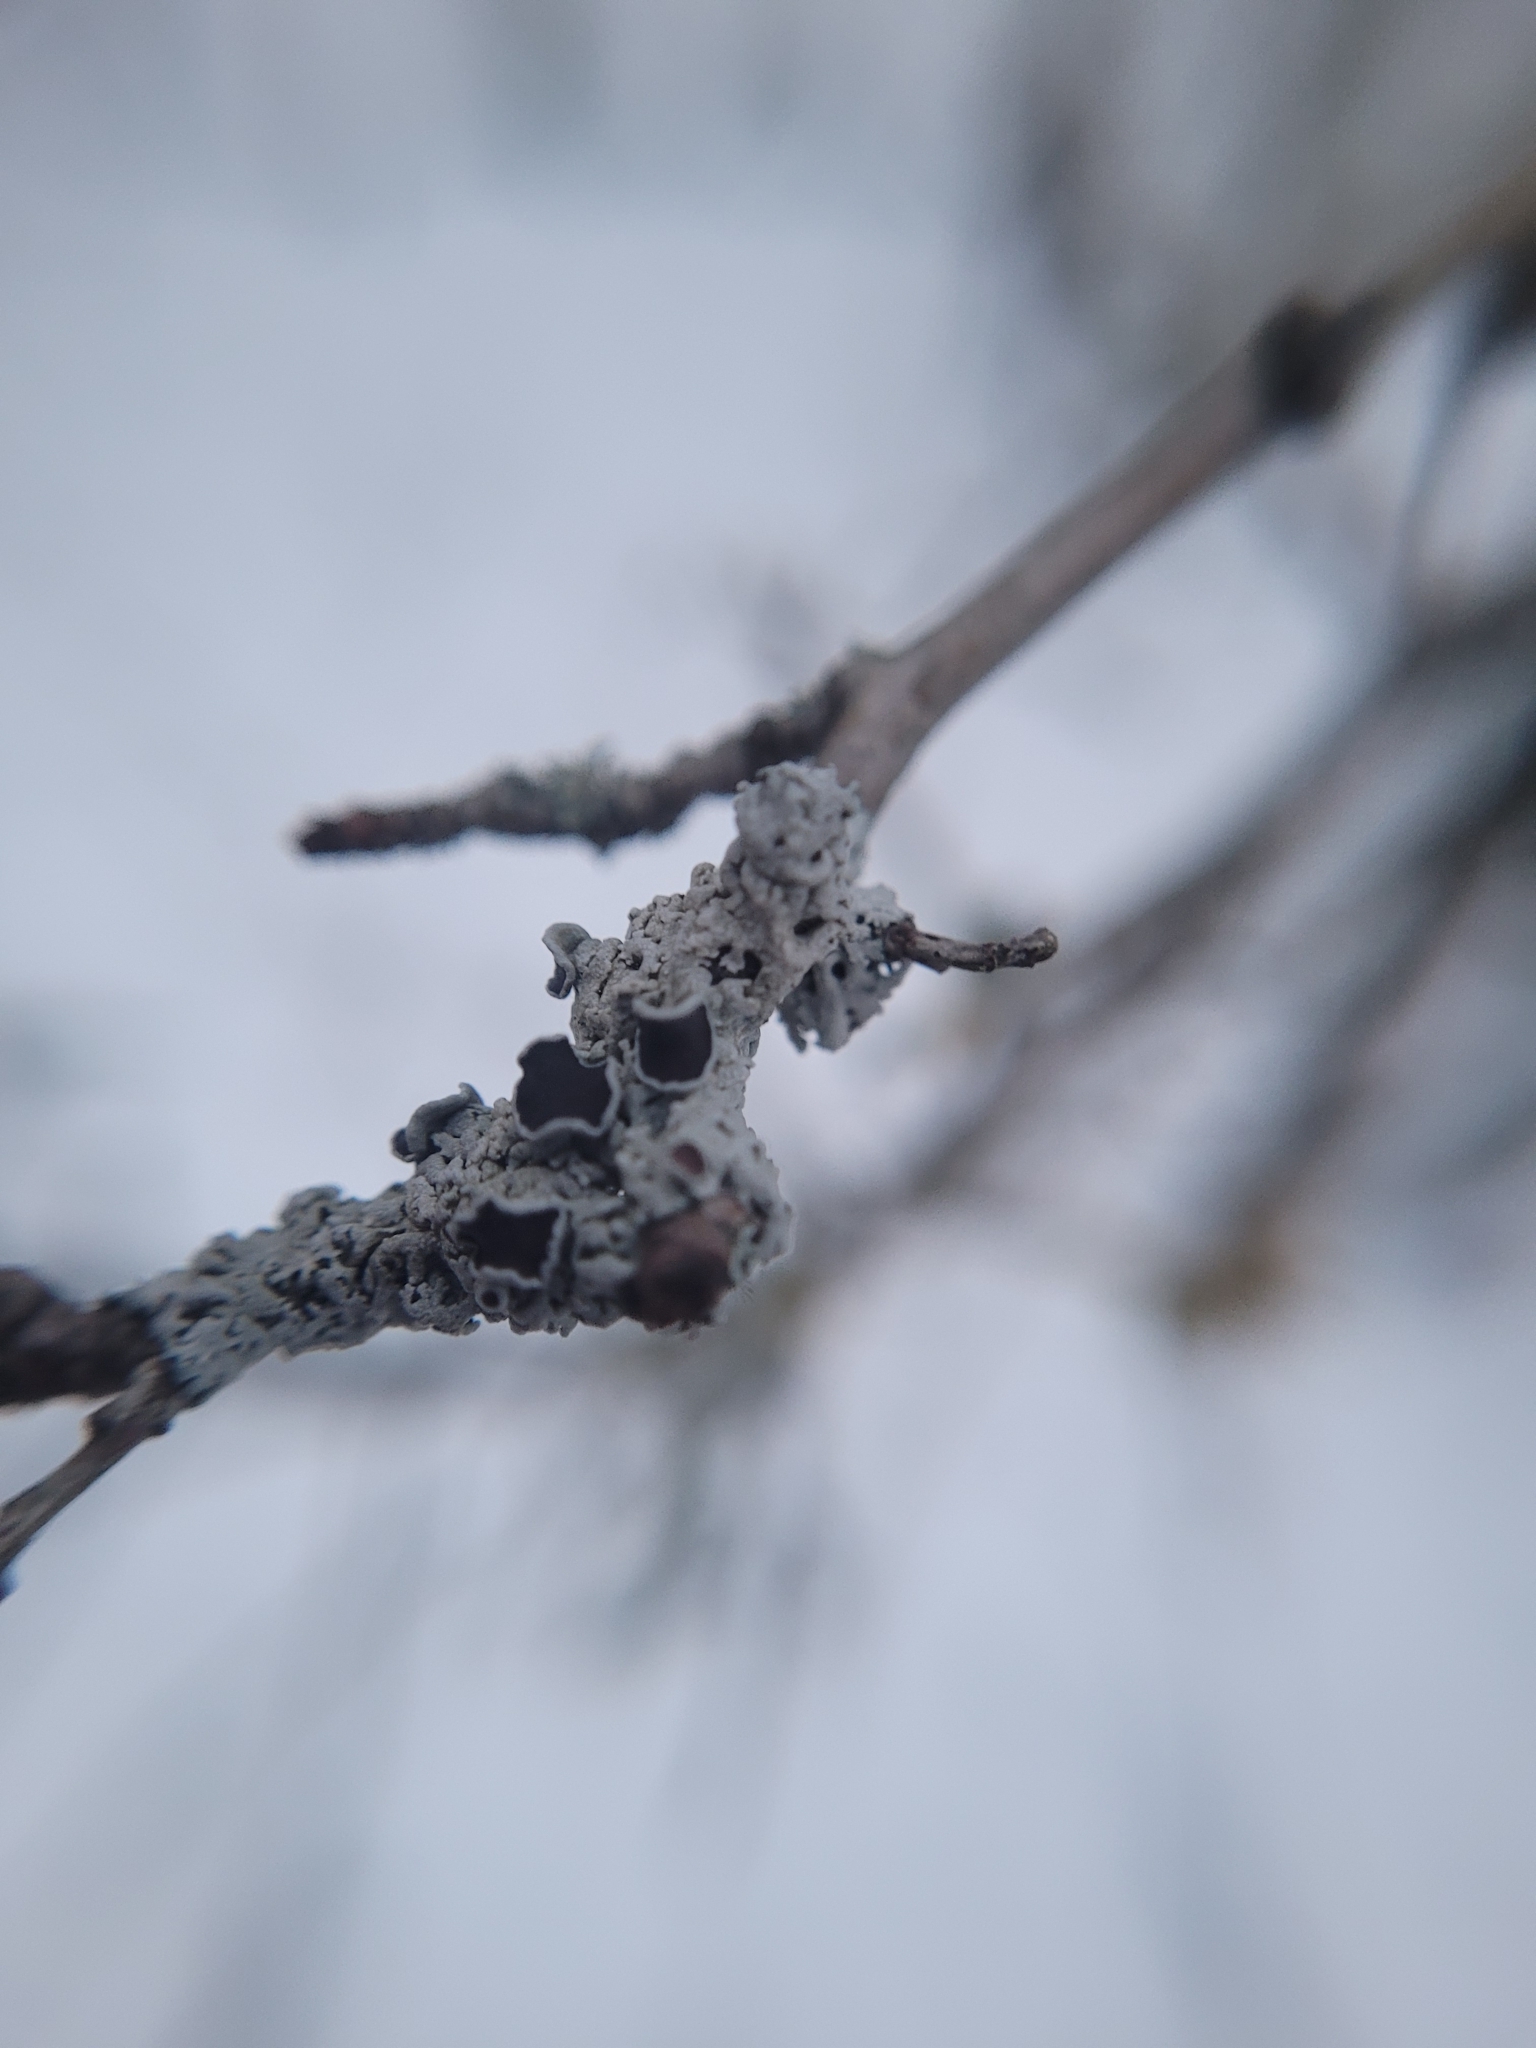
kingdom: Fungi
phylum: Ascomycota
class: Lecanoromycetes
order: Caliciales
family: Physciaceae
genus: Physcia
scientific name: Physcia stellaris
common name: Star rosette lichen
